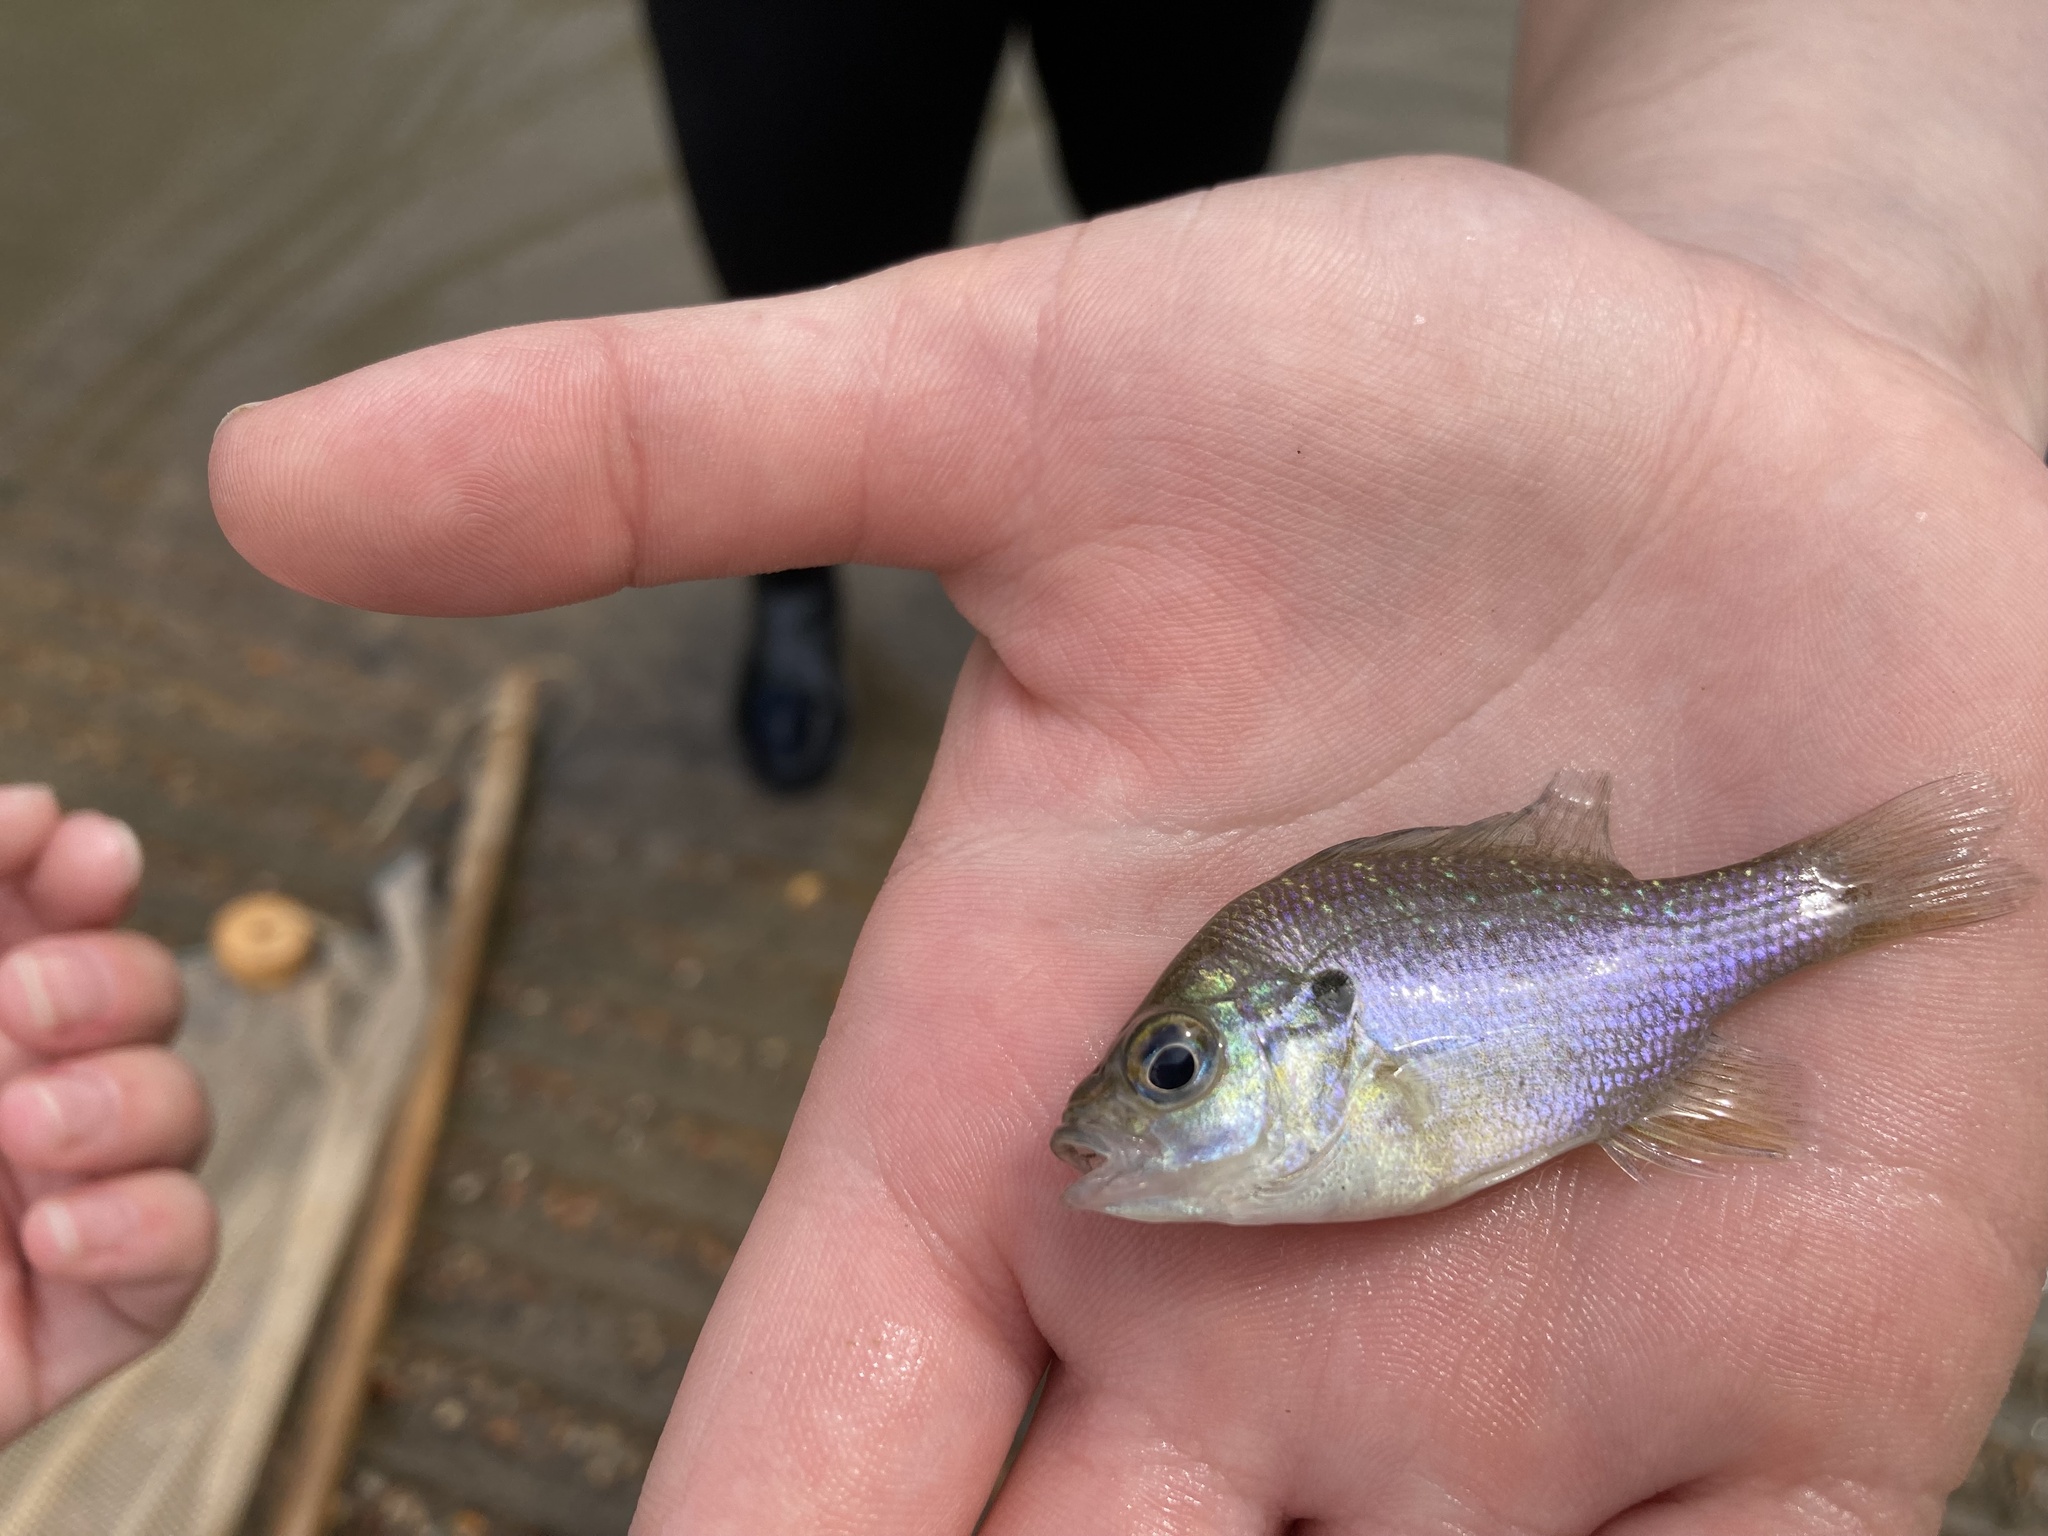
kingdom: Animalia
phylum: Chordata
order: Perciformes
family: Centrarchidae
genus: Lepomis
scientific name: Lepomis aquilensis
